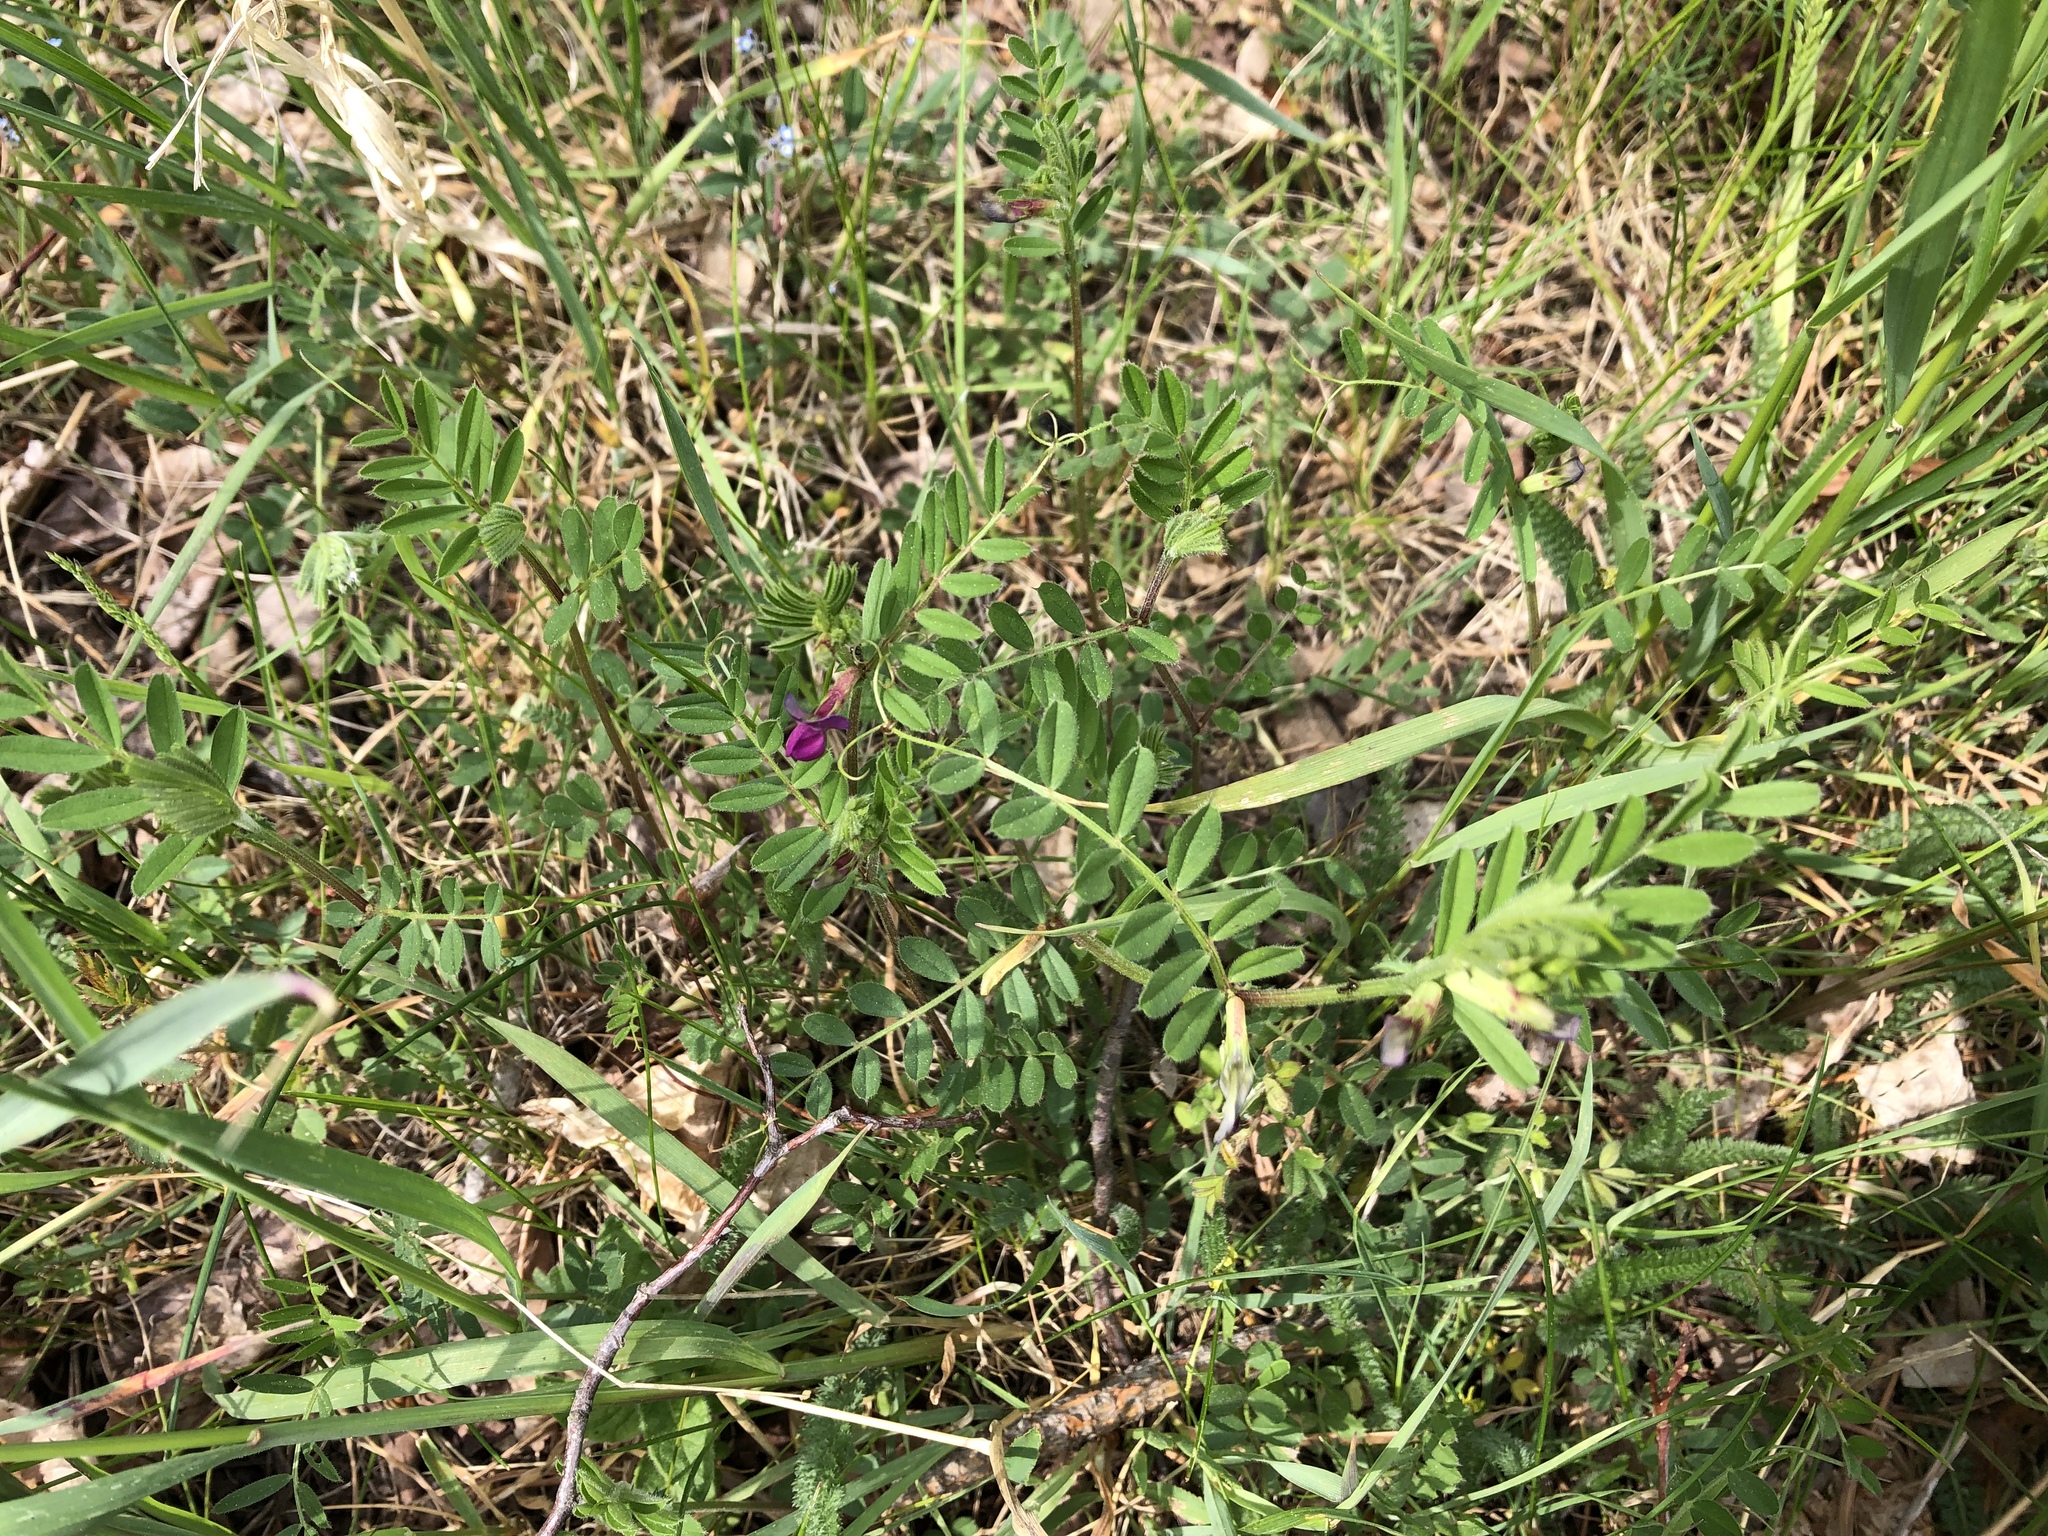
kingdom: Plantae
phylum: Tracheophyta
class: Magnoliopsida
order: Fabales
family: Fabaceae
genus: Vicia
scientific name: Vicia sativa
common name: Garden vetch
